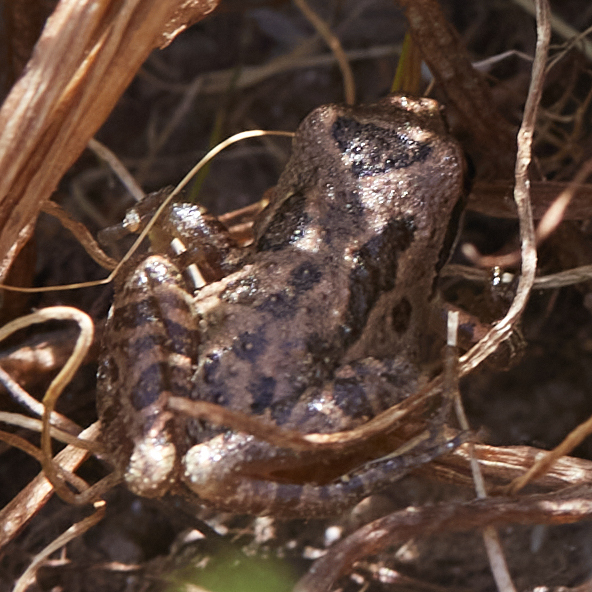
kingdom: Animalia
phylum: Chordata
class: Amphibia
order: Anura
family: Hylidae
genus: Pseudacris
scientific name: Pseudacris regilla
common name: Pacific chorus frog
